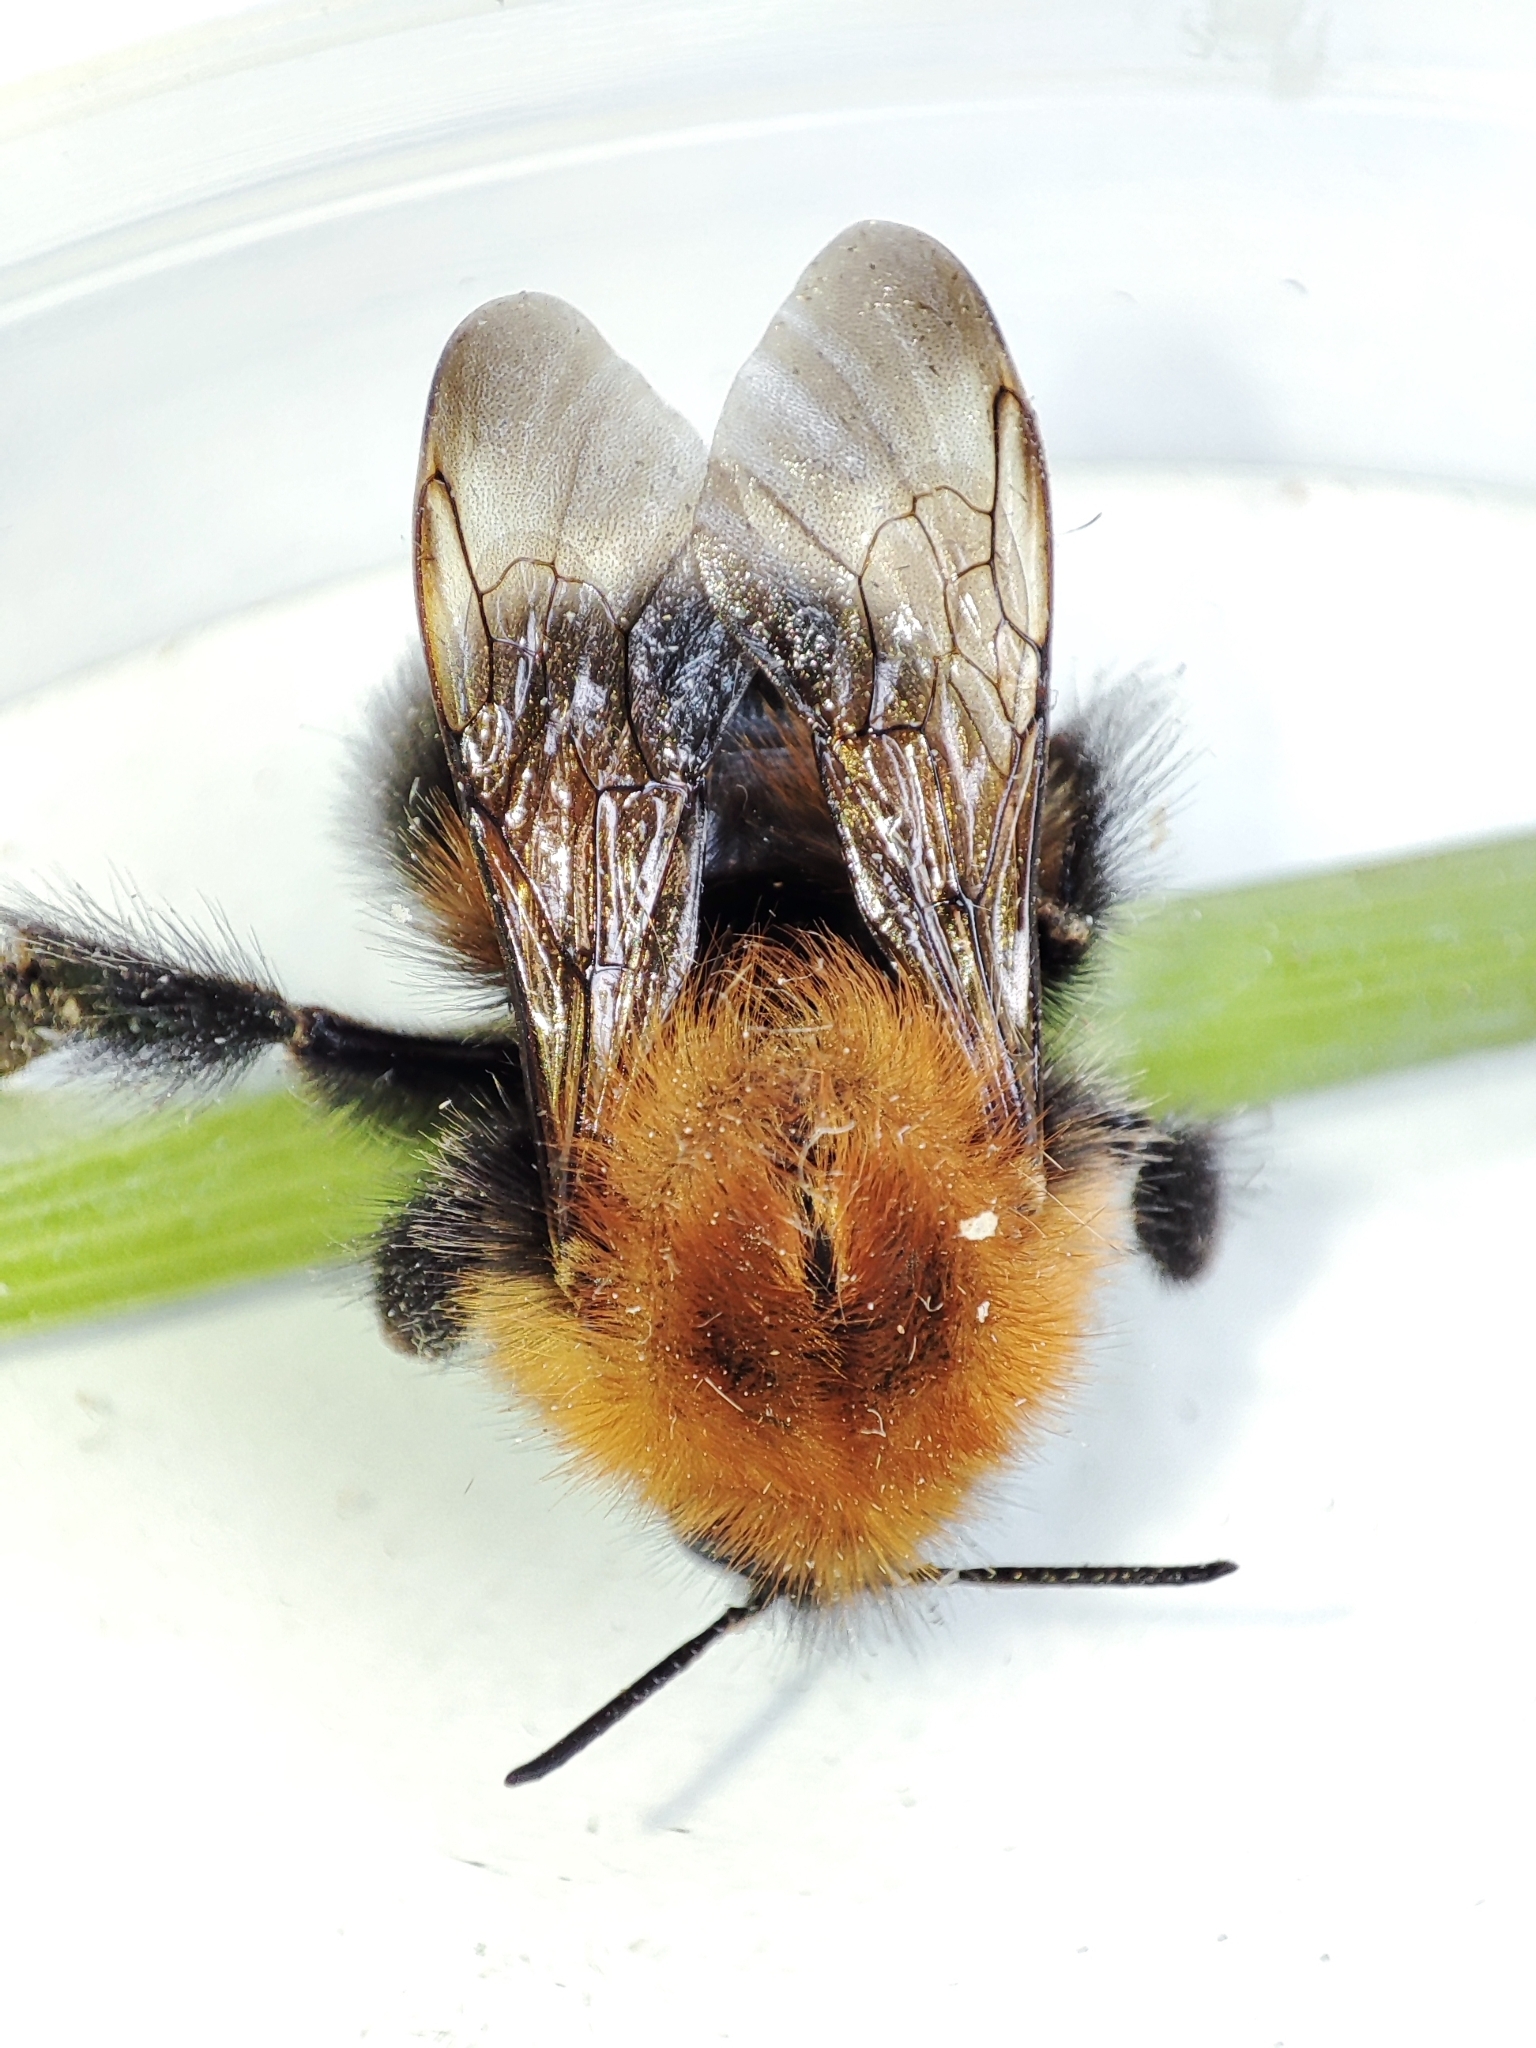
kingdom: Animalia
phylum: Arthropoda
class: Insecta
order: Hymenoptera
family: Apidae
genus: Bombus
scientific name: Bombus hypnorum
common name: New garden bumblebee
